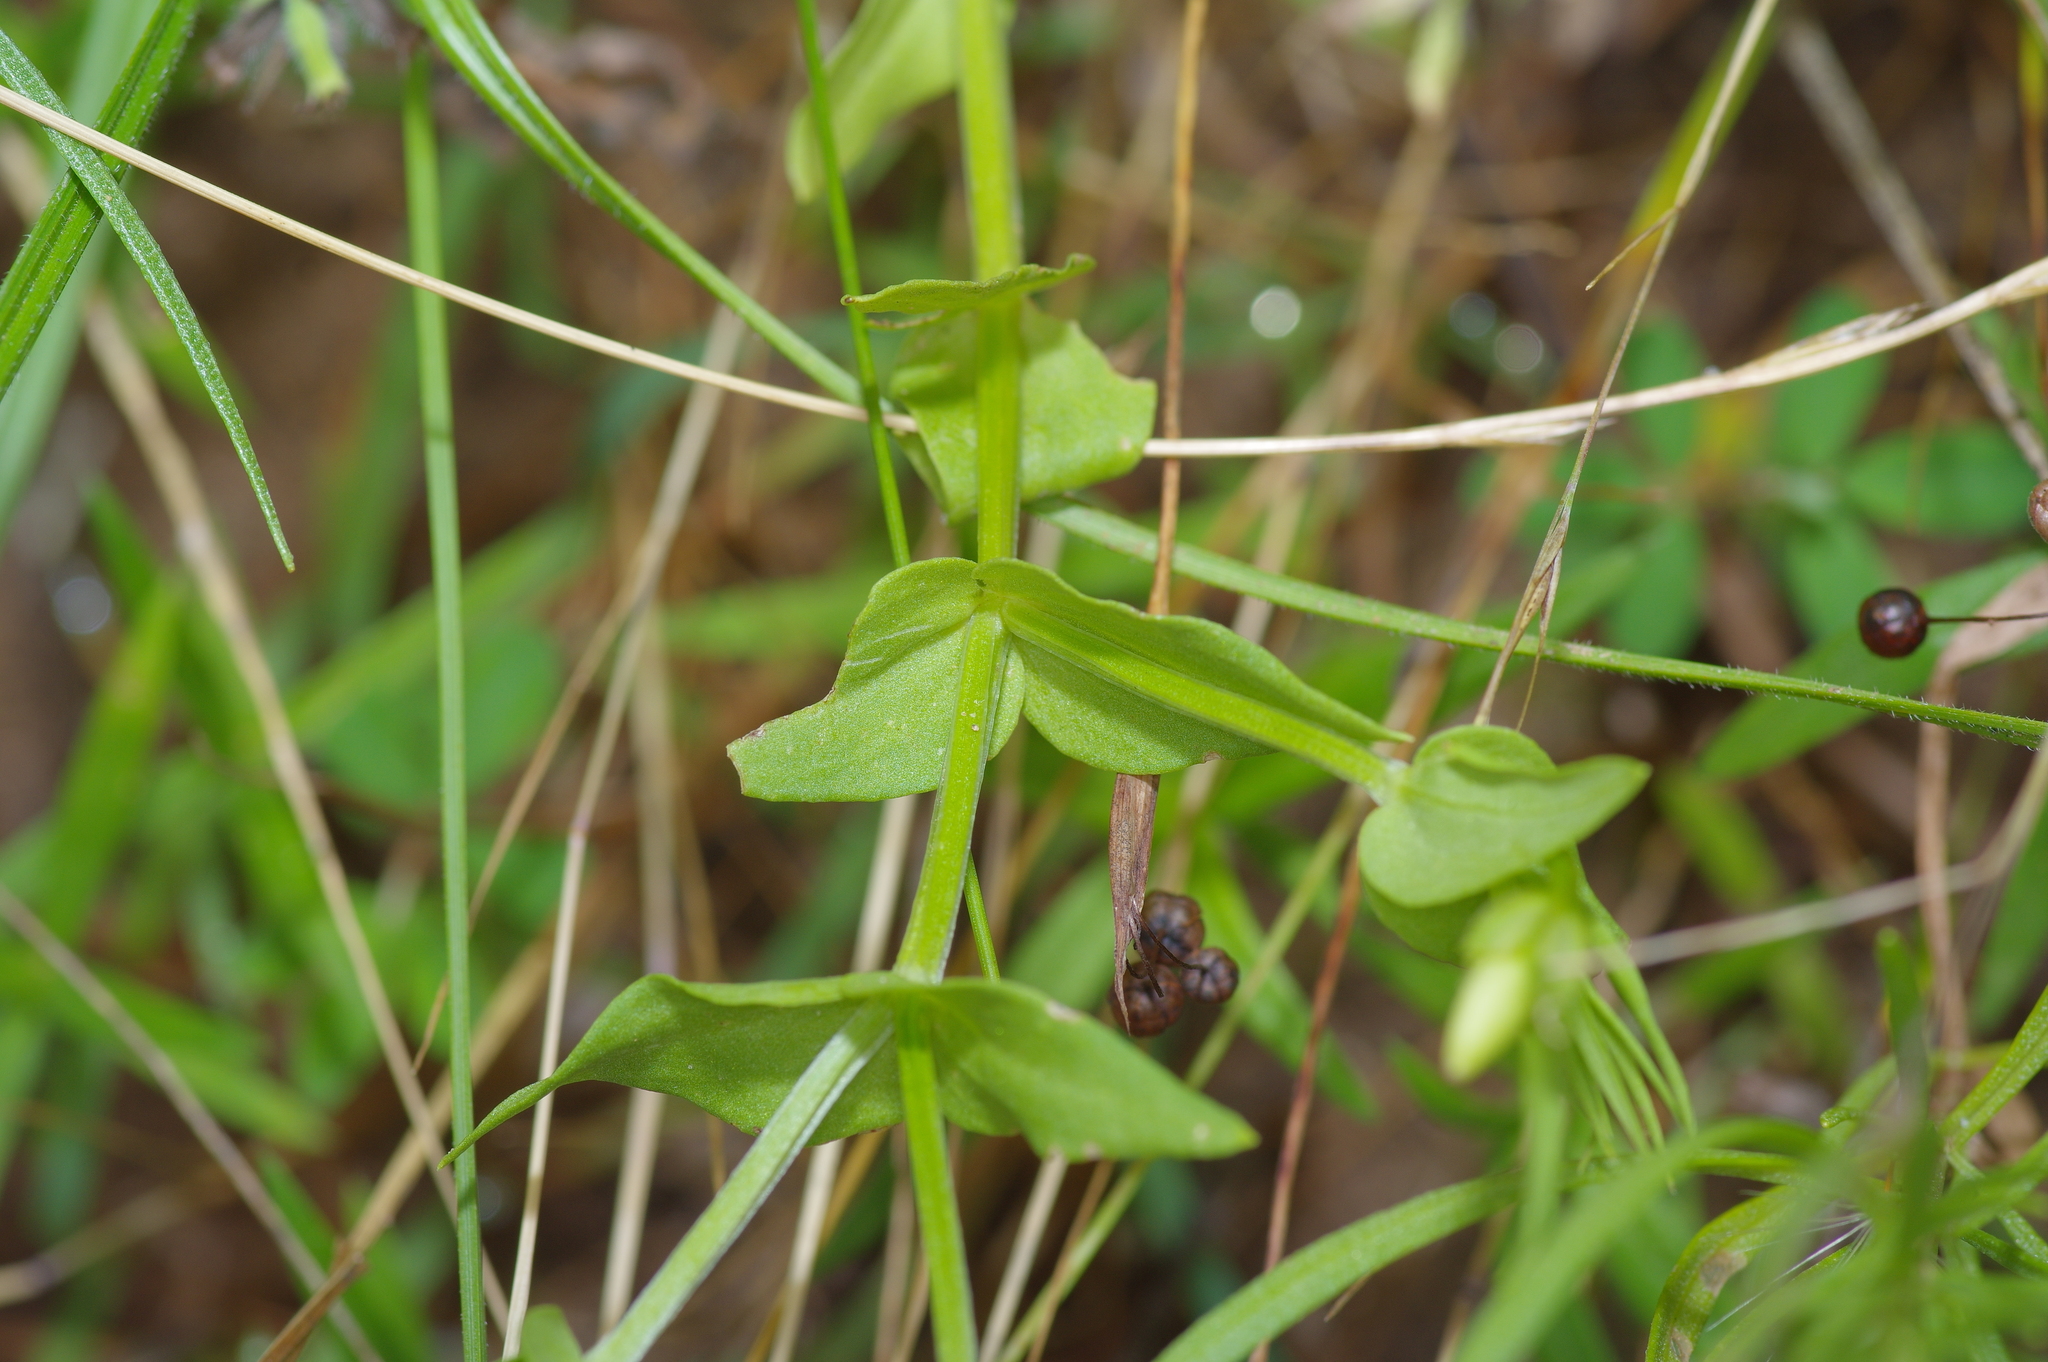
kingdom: Plantae
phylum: Tracheophyta
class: Magnoliopsida
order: Gentianales
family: Gentianaceae
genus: Sabatia
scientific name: Sabatia campestris
